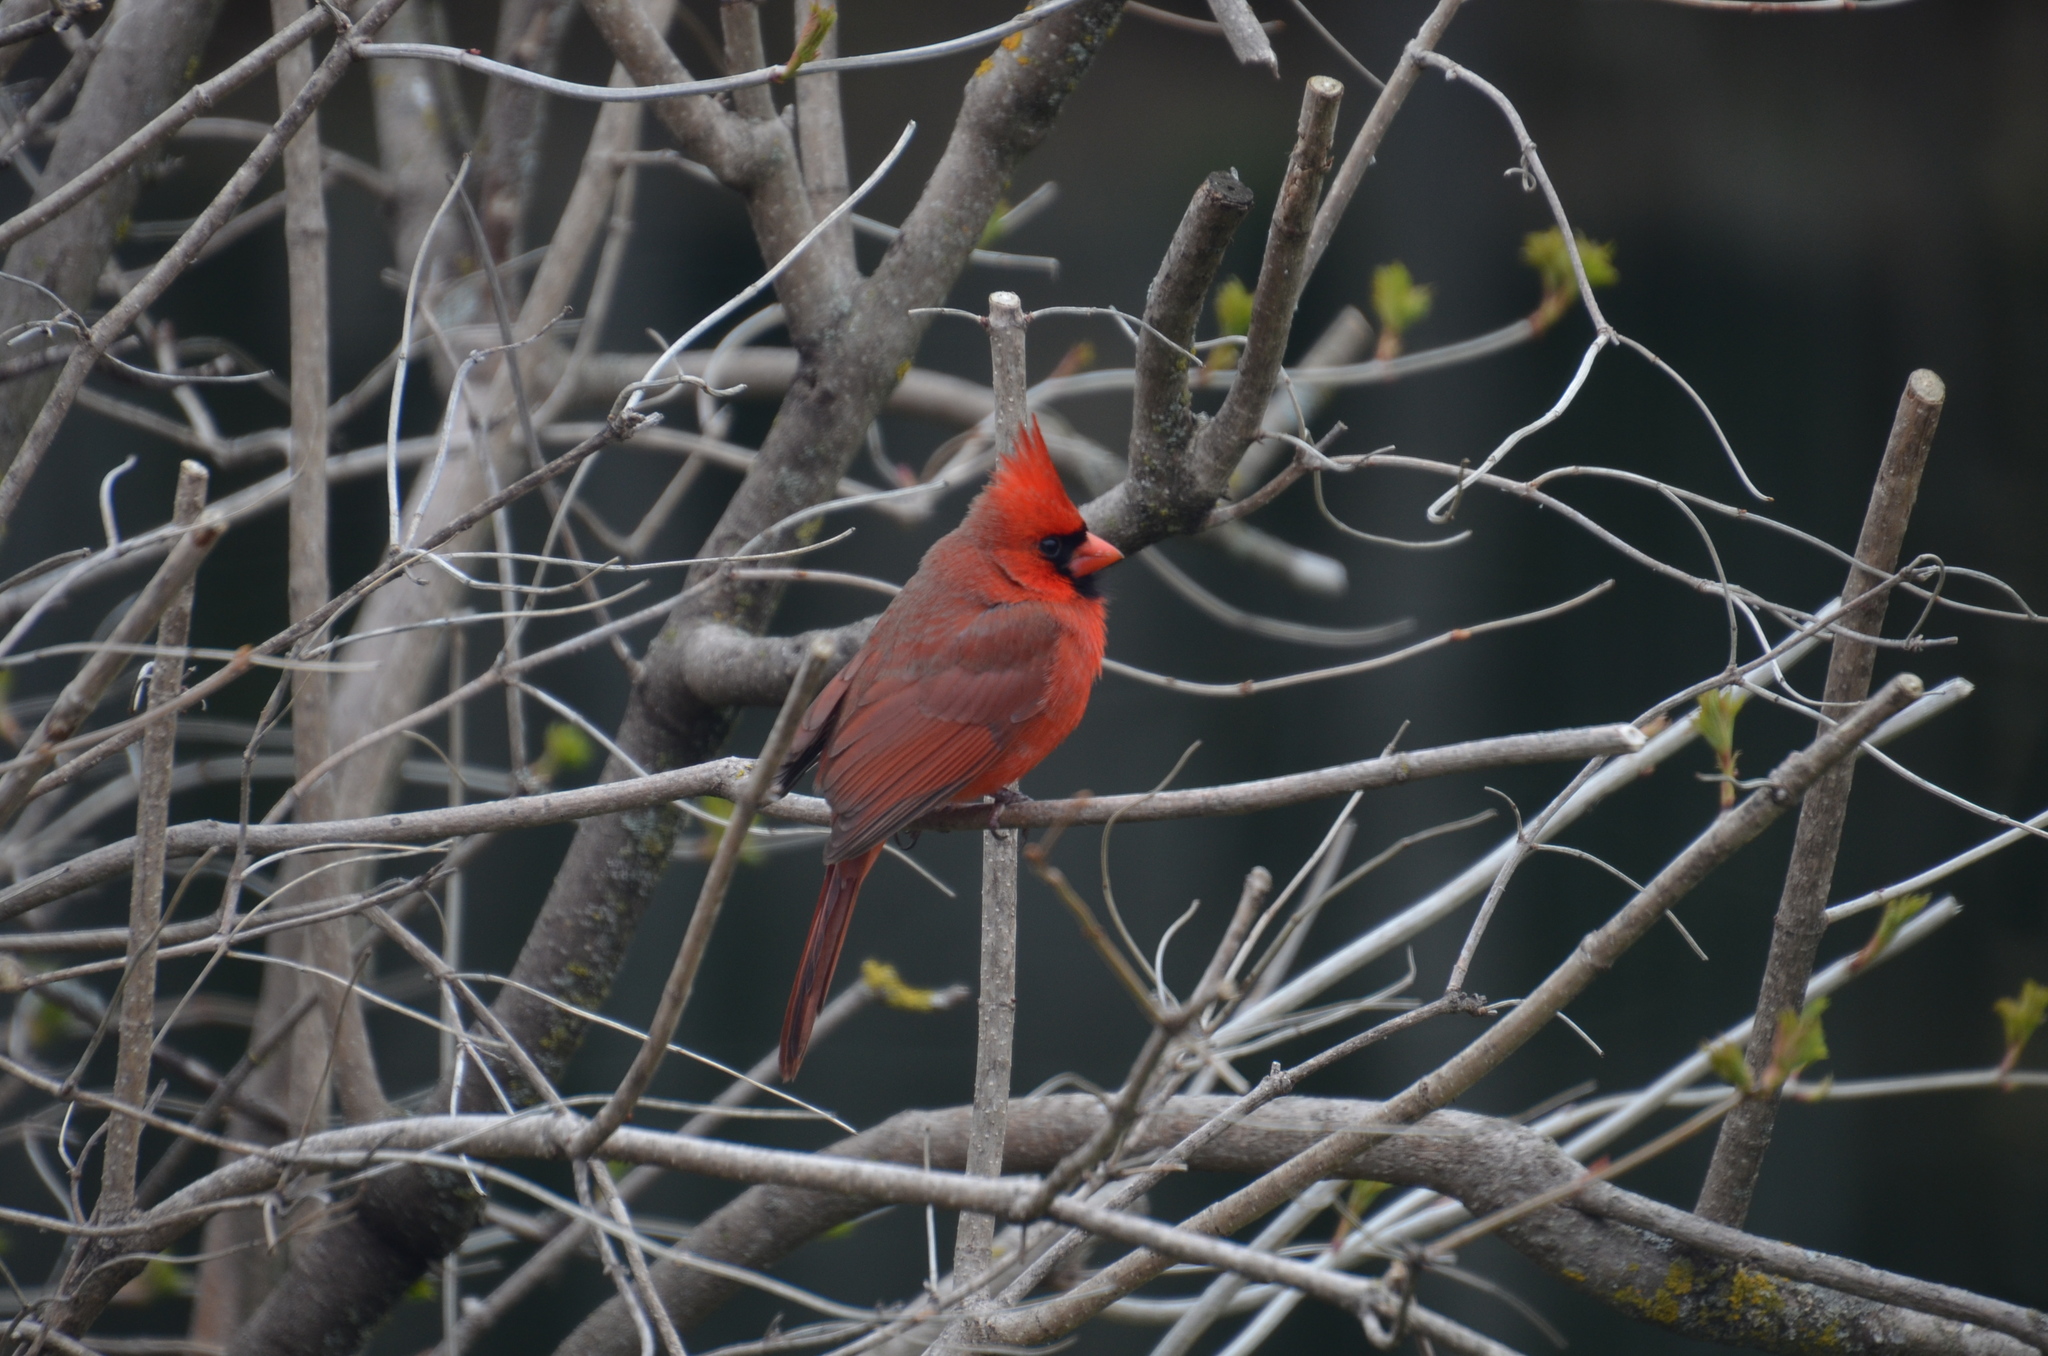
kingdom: Animalia
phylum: Chordata
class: Aves
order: Passeriformes
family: Cardinalidae
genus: Cardinalis
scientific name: Cardinalis cardinalis
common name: Northern cardinal
